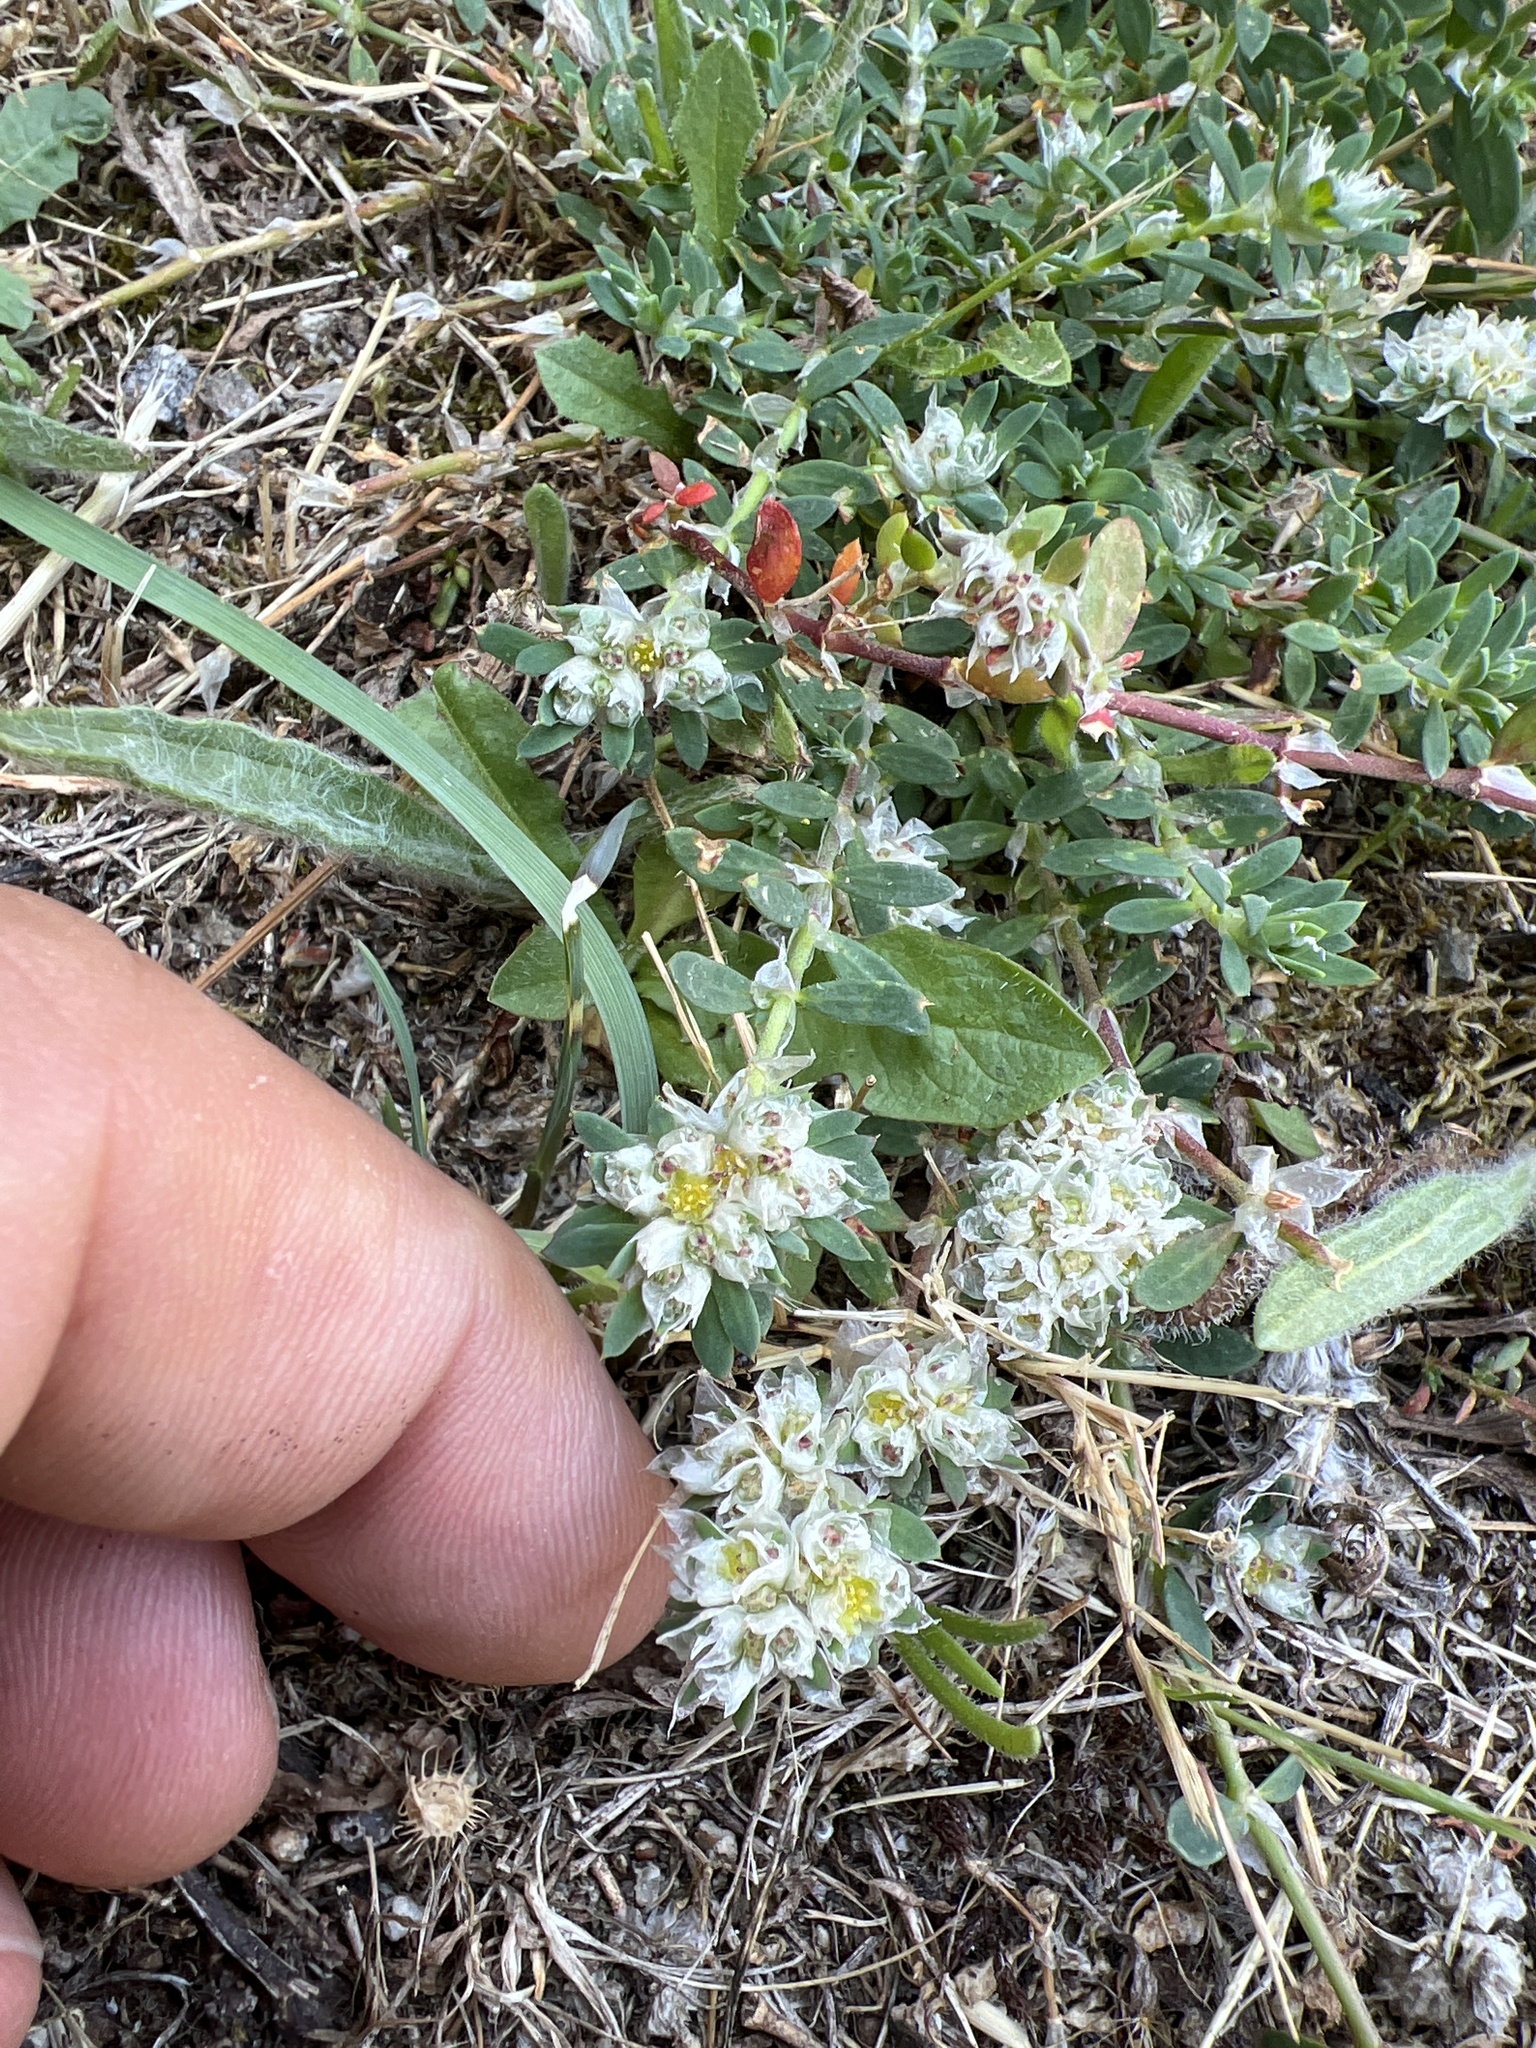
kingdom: Plantae
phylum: Tracheophyta
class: Magnoliopsida
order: Caryophyllales
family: Caryophyllaceae
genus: Paronychia
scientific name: Paronychia argentea
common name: Silver nailroot
